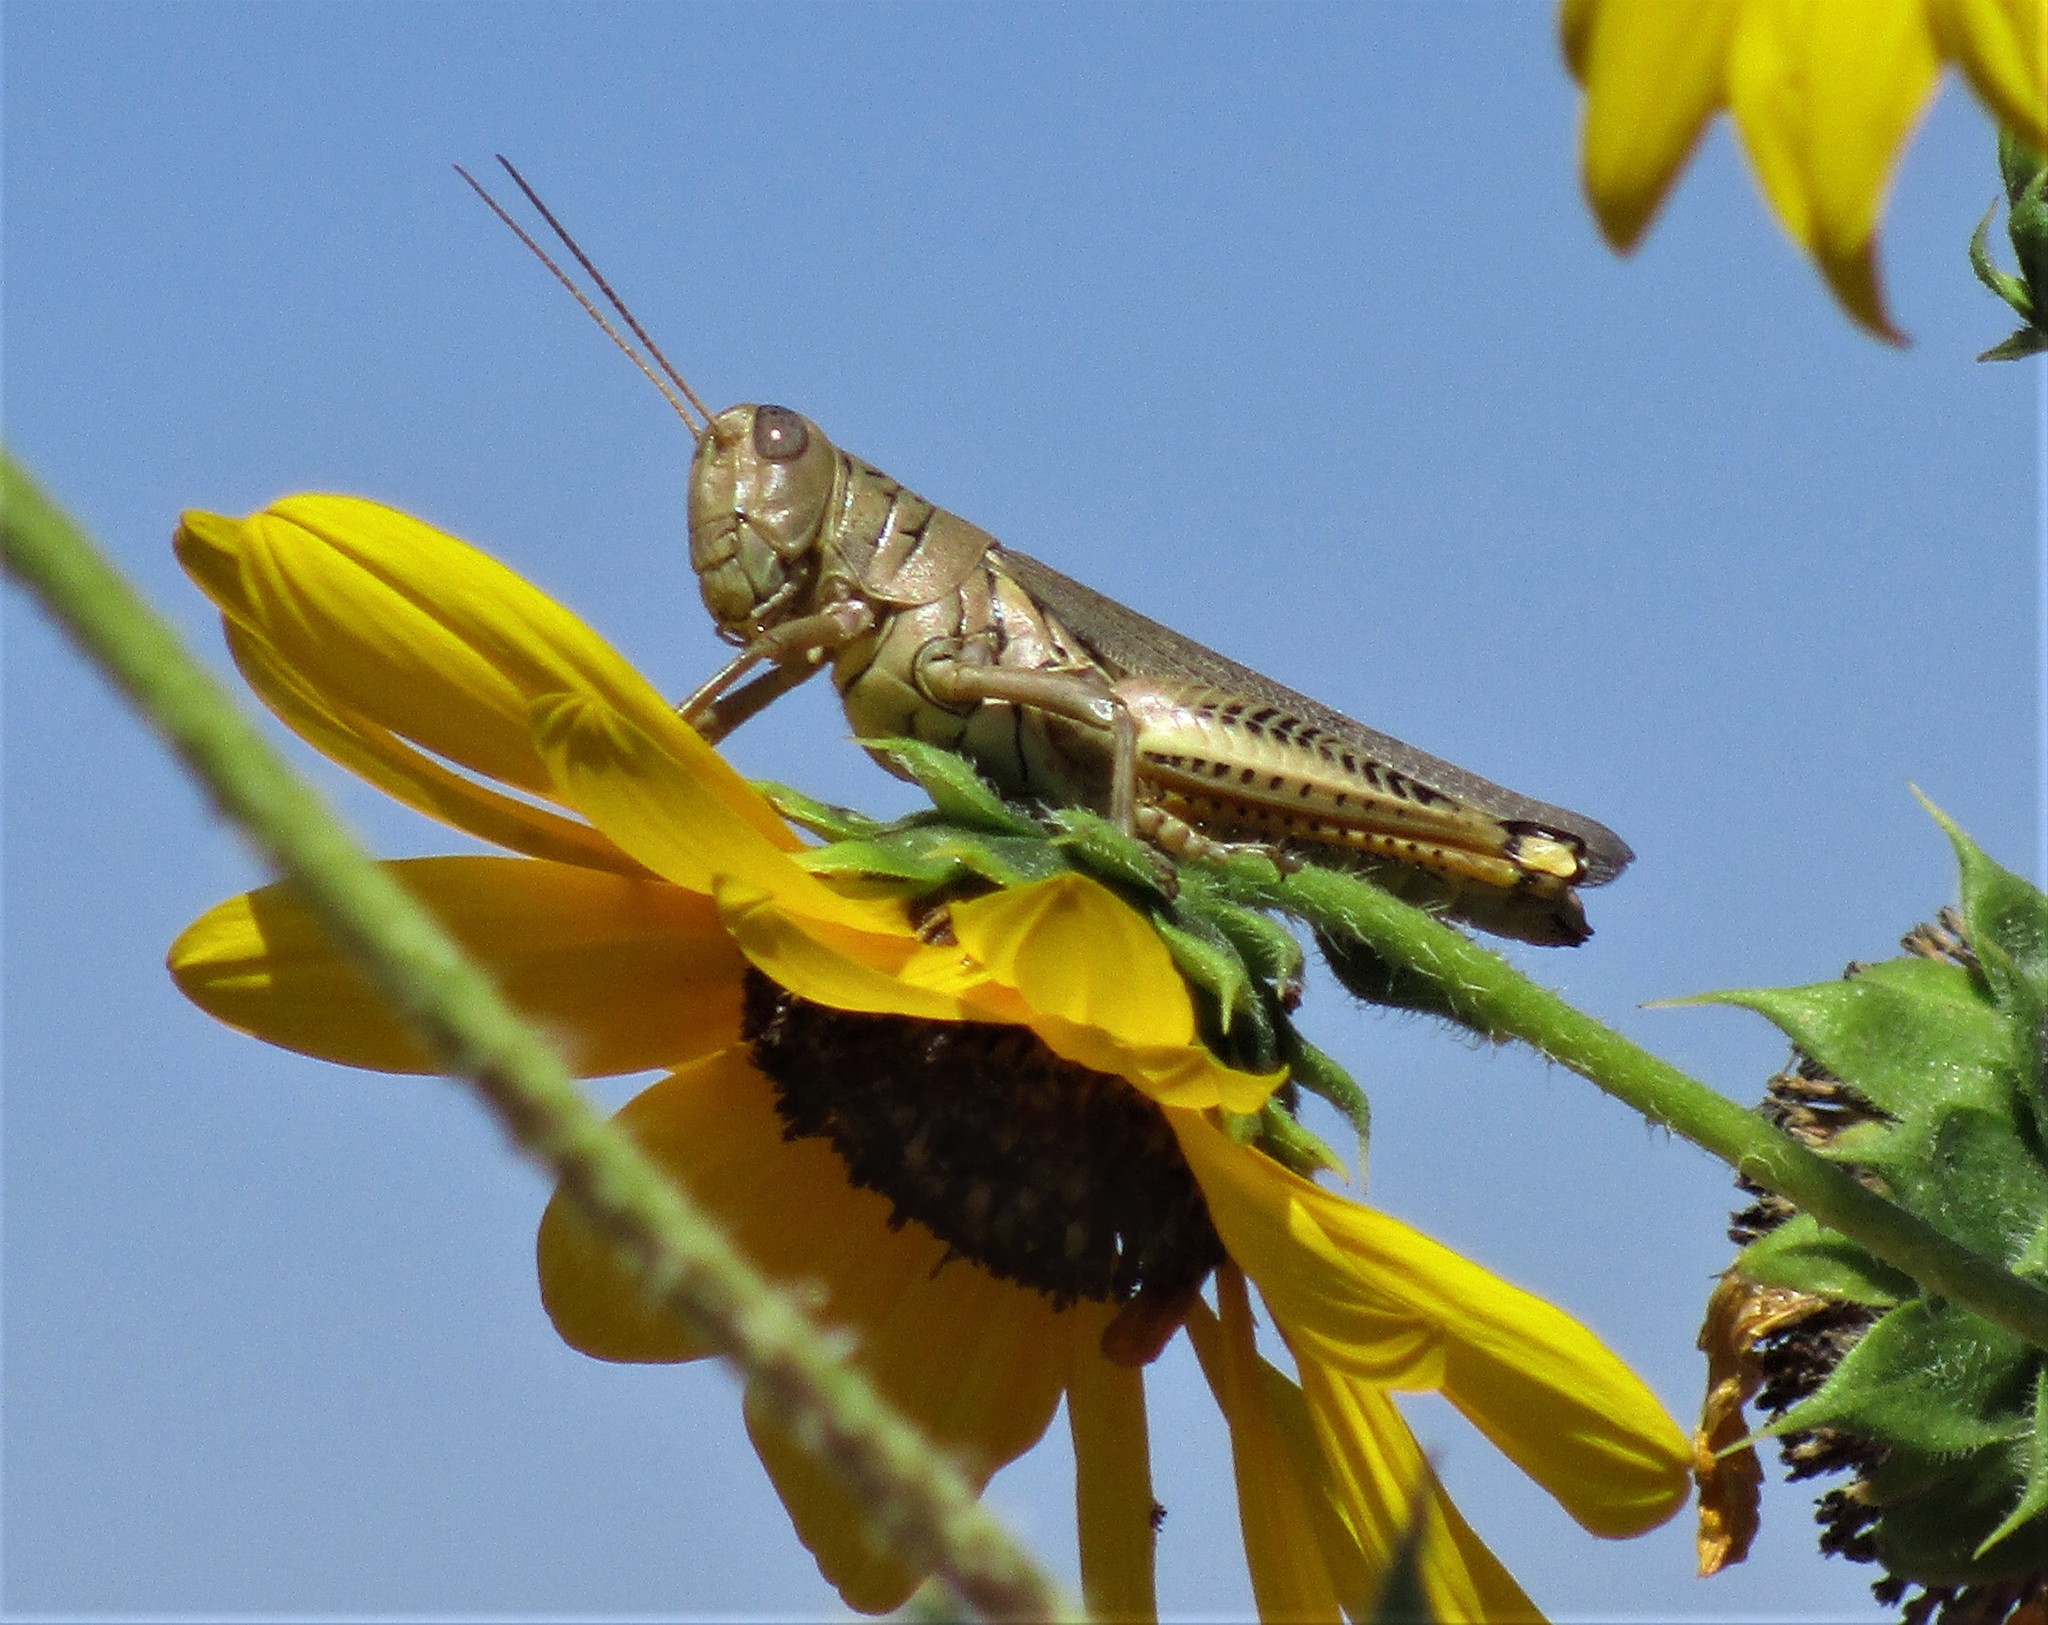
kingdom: Animalia
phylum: Arthropoda
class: Insecta
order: Orthoptera
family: Acrididae
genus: Melanoplus
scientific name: Melanoplus differentialis
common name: Differential grasshopper
